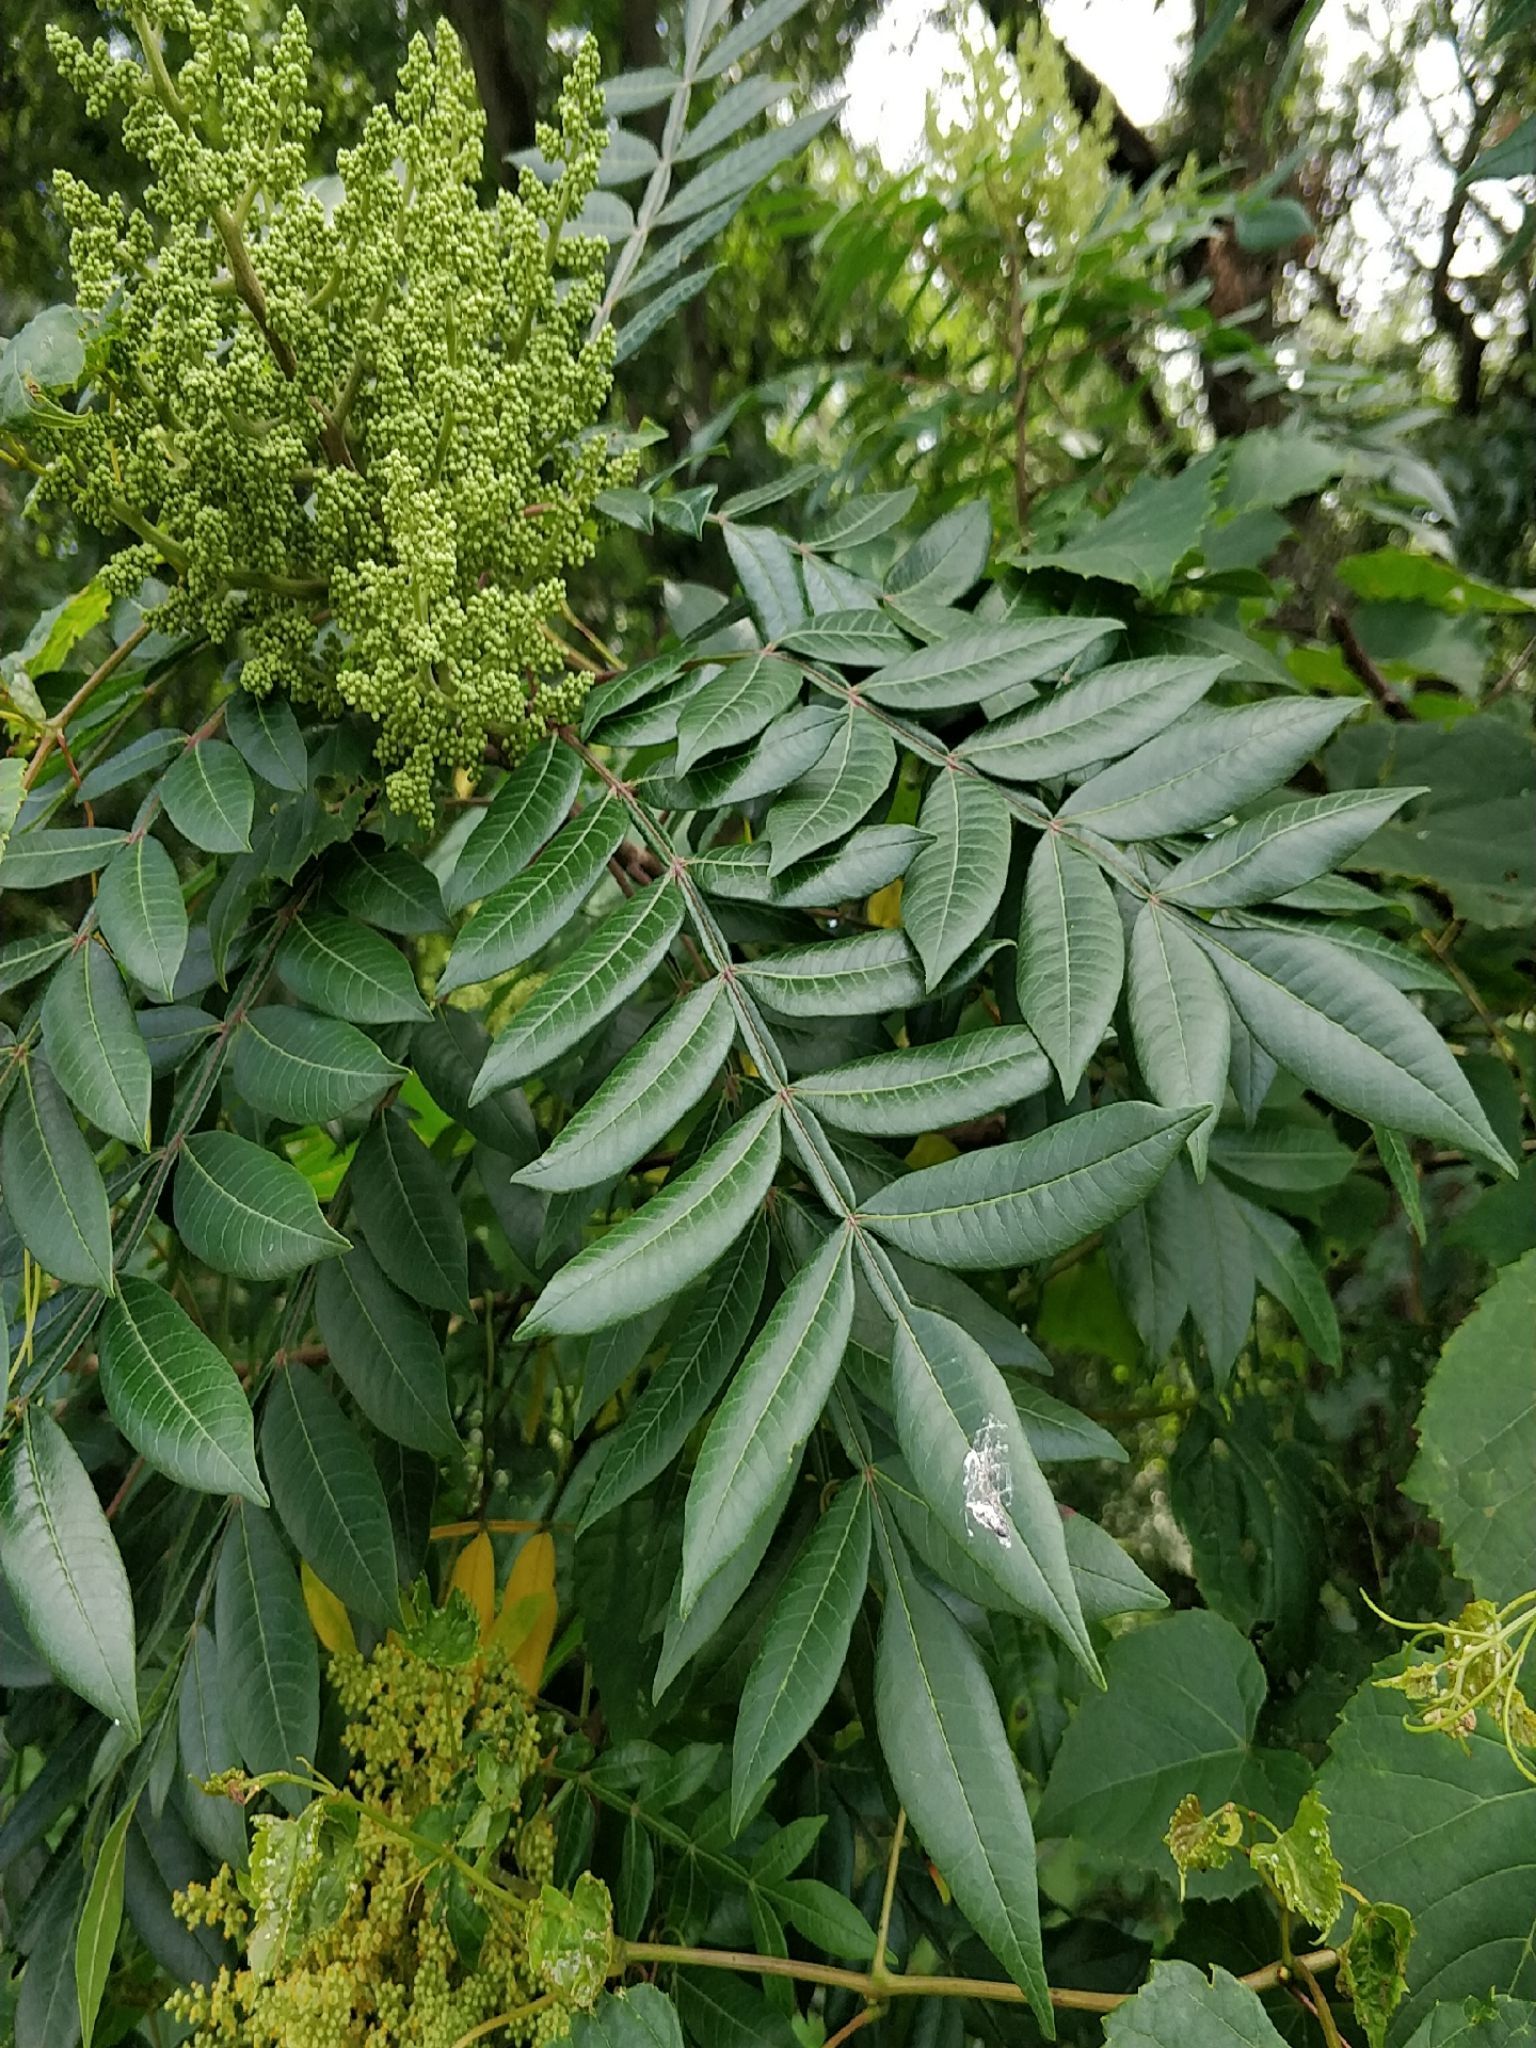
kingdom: Plantae
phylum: Tracheophyta
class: Magnoliopsida
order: Sapindales
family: Anacardiaceae
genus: Rhus
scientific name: Rhus copallina
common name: Shining sumac
